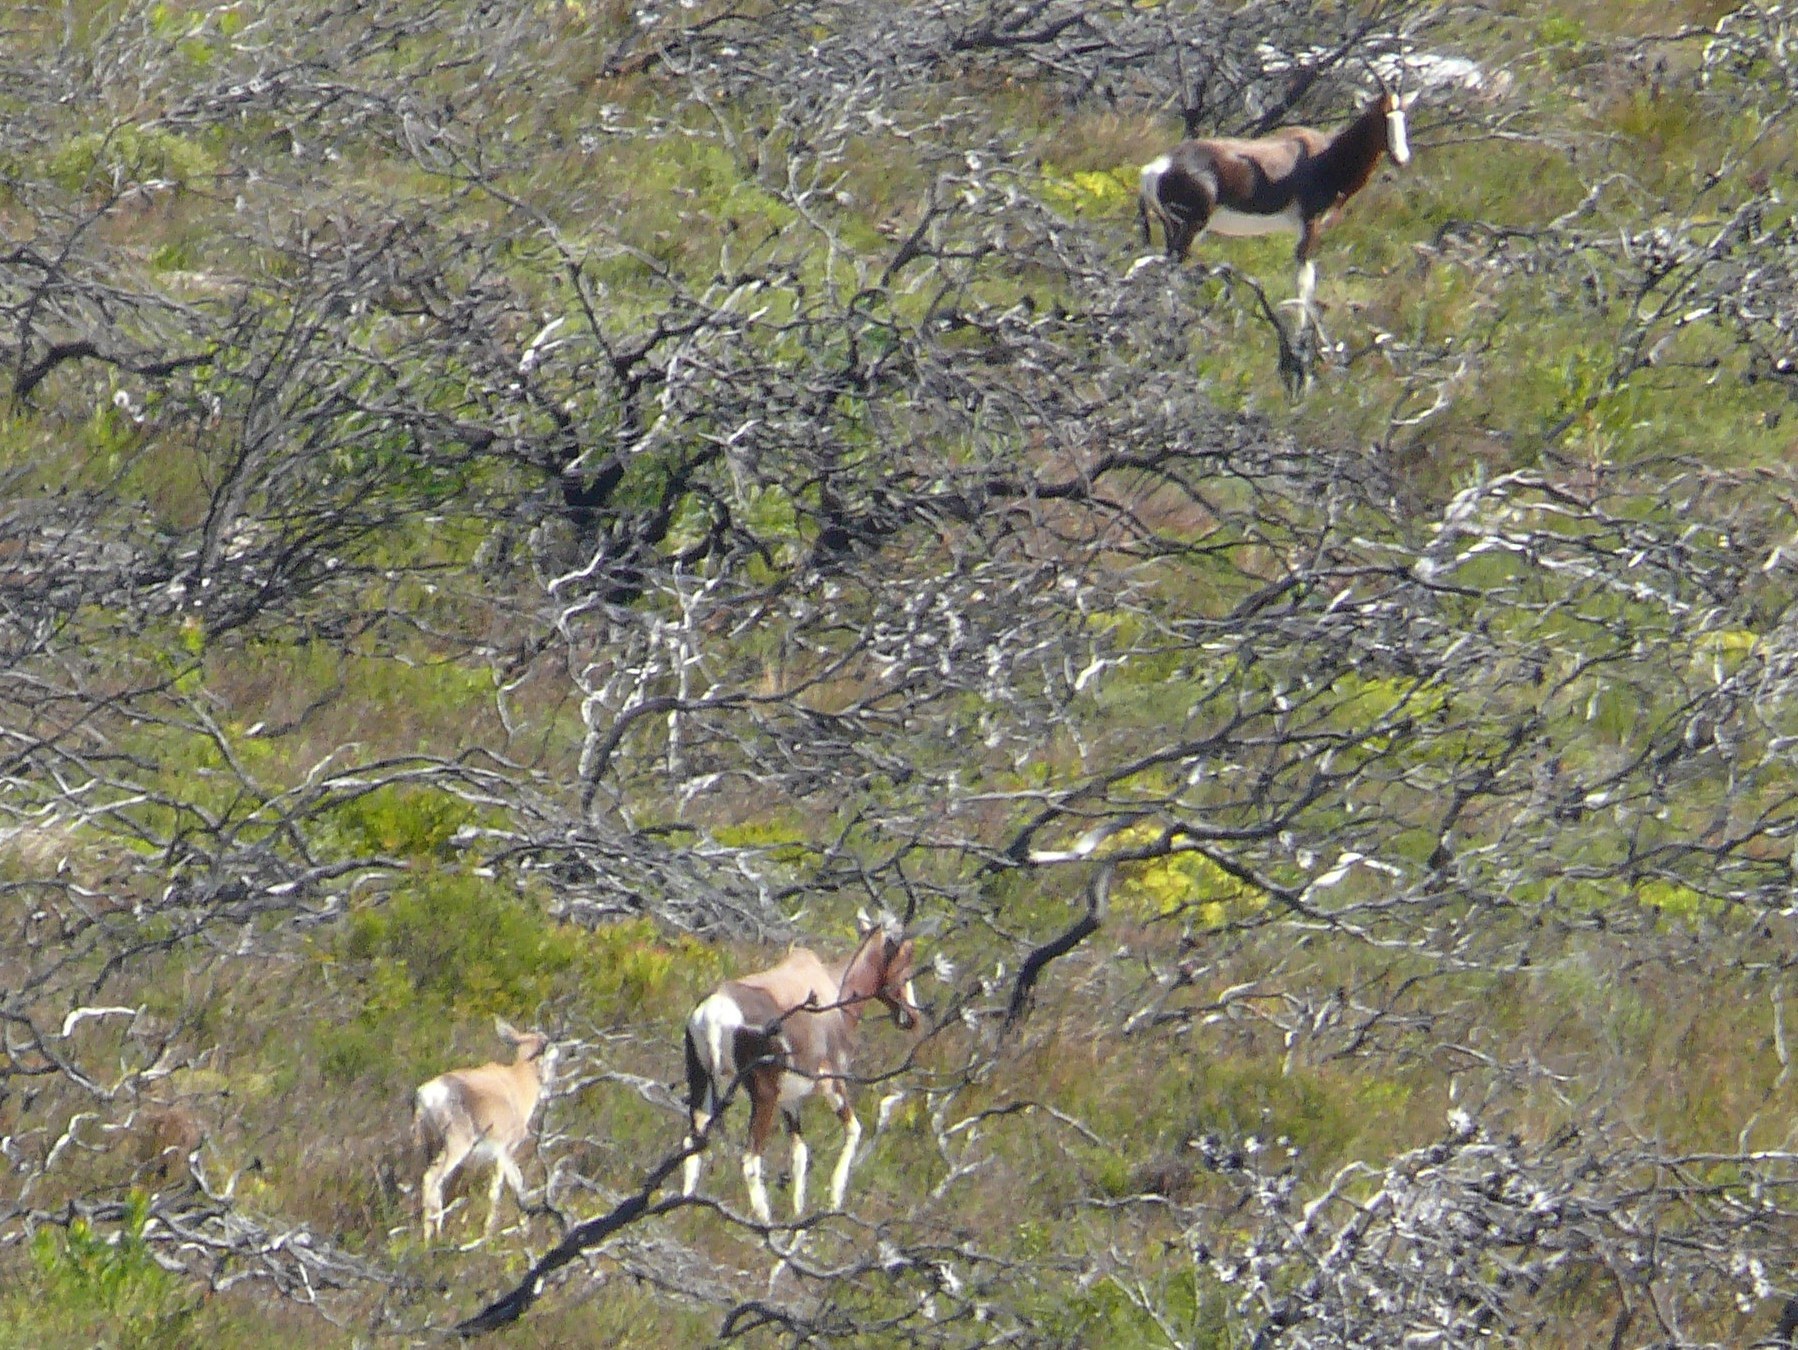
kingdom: Animalia
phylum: Chordata
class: Mammalia
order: Artiodactyla
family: Bovidae
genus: Damaliscus
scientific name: Damaliscus pygargus
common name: Bontebok
